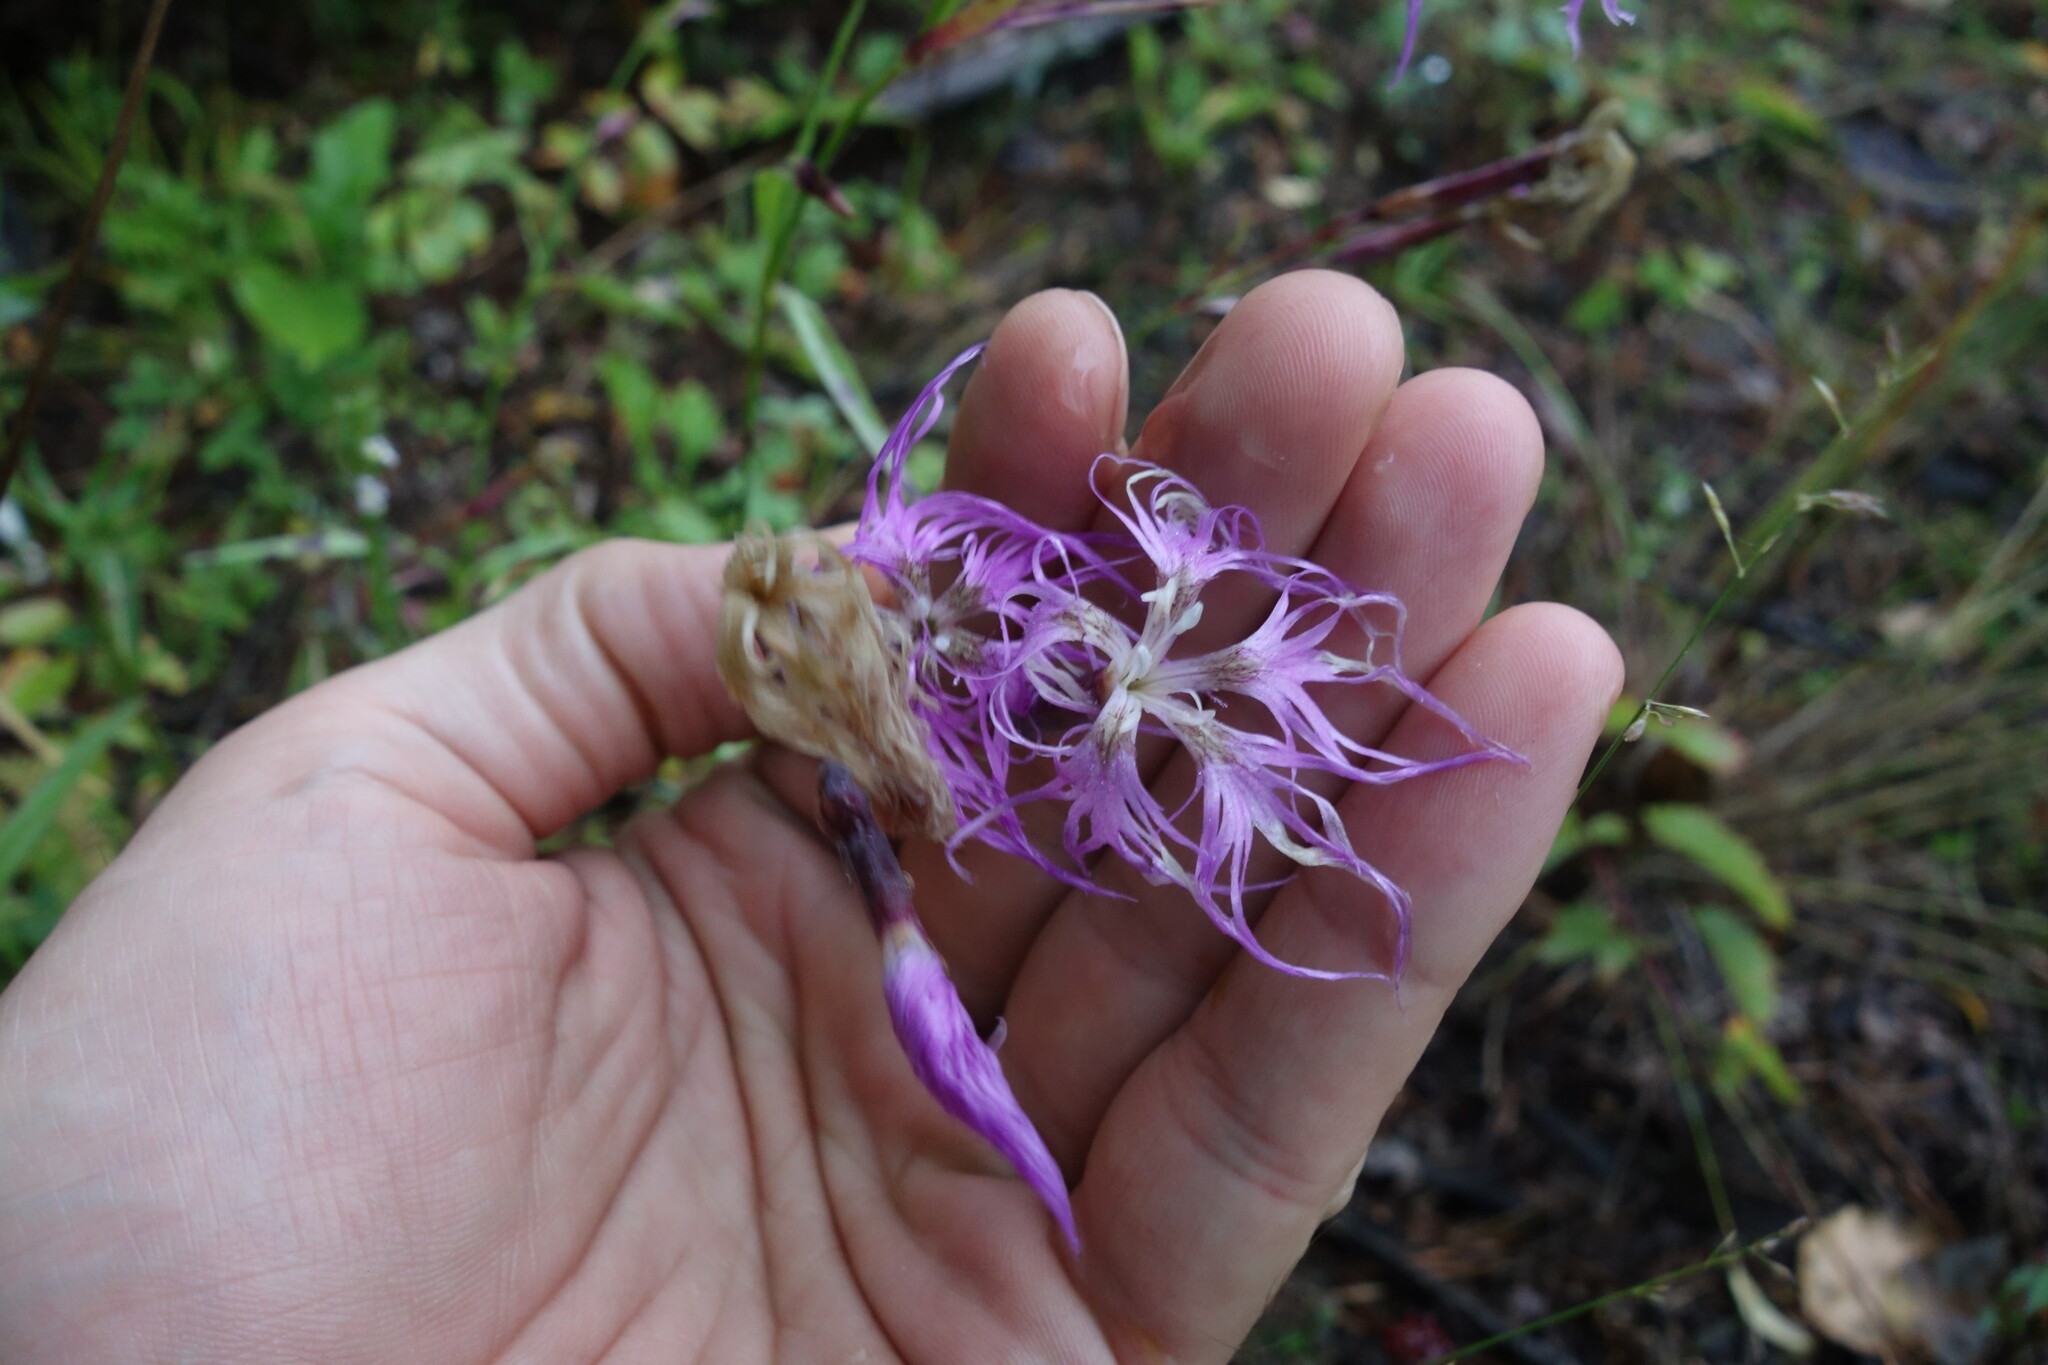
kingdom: Plantae
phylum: Tracheophyta
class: Magnoliopsida
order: Caryophyllales
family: Caryophyllaceae
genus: Dianthus
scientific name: Dianthus superbus
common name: Fringed pink
